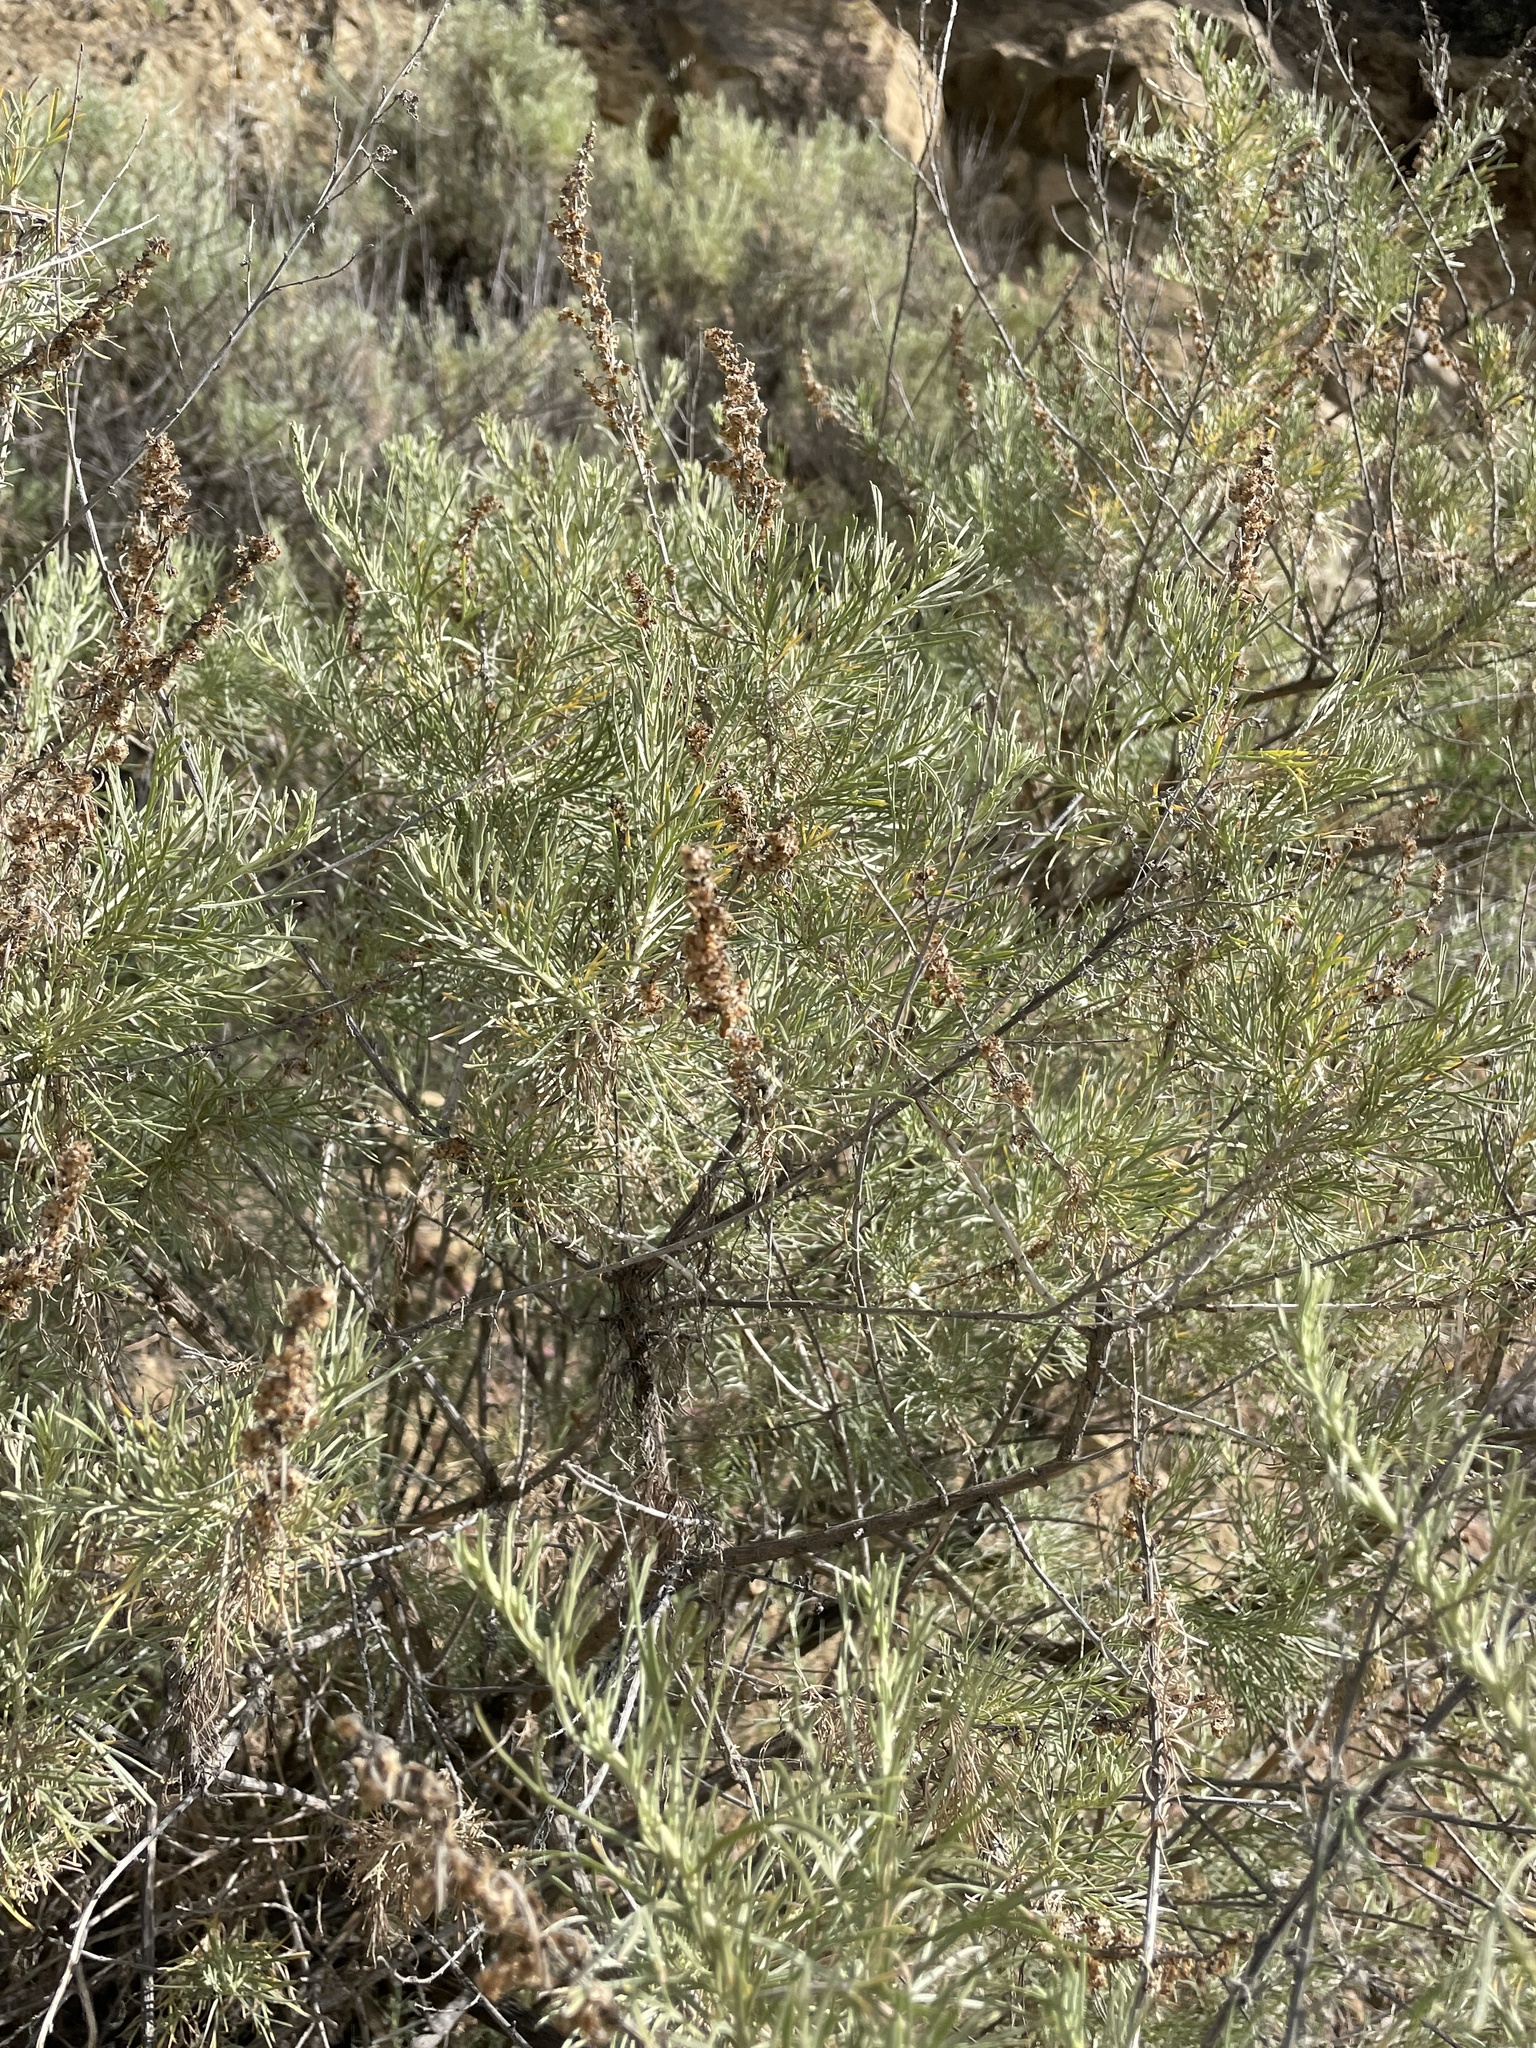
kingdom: Plantae
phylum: Tracheophyta
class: Magnoliopsida
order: Asterales
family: Asteraceae
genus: Artemisia
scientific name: Artemisia californica
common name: California sagebrush
